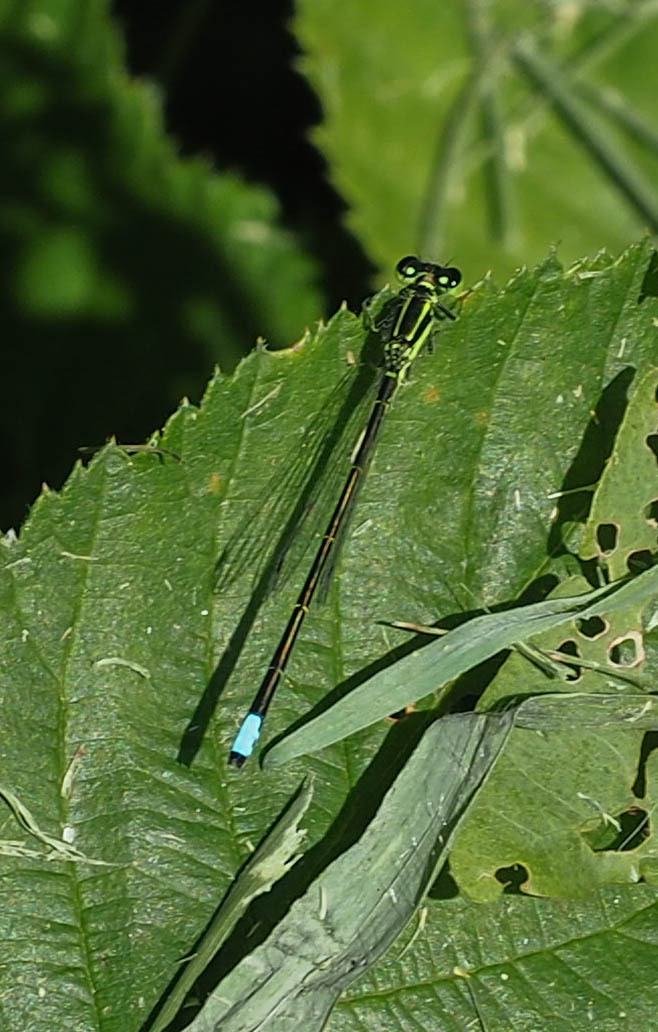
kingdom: Animalia
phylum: Arthropoda
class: Insecta
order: Odonata
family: Coenagrionidae
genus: Ischnura
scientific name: Ischnura verticalis
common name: Eastern forktail
